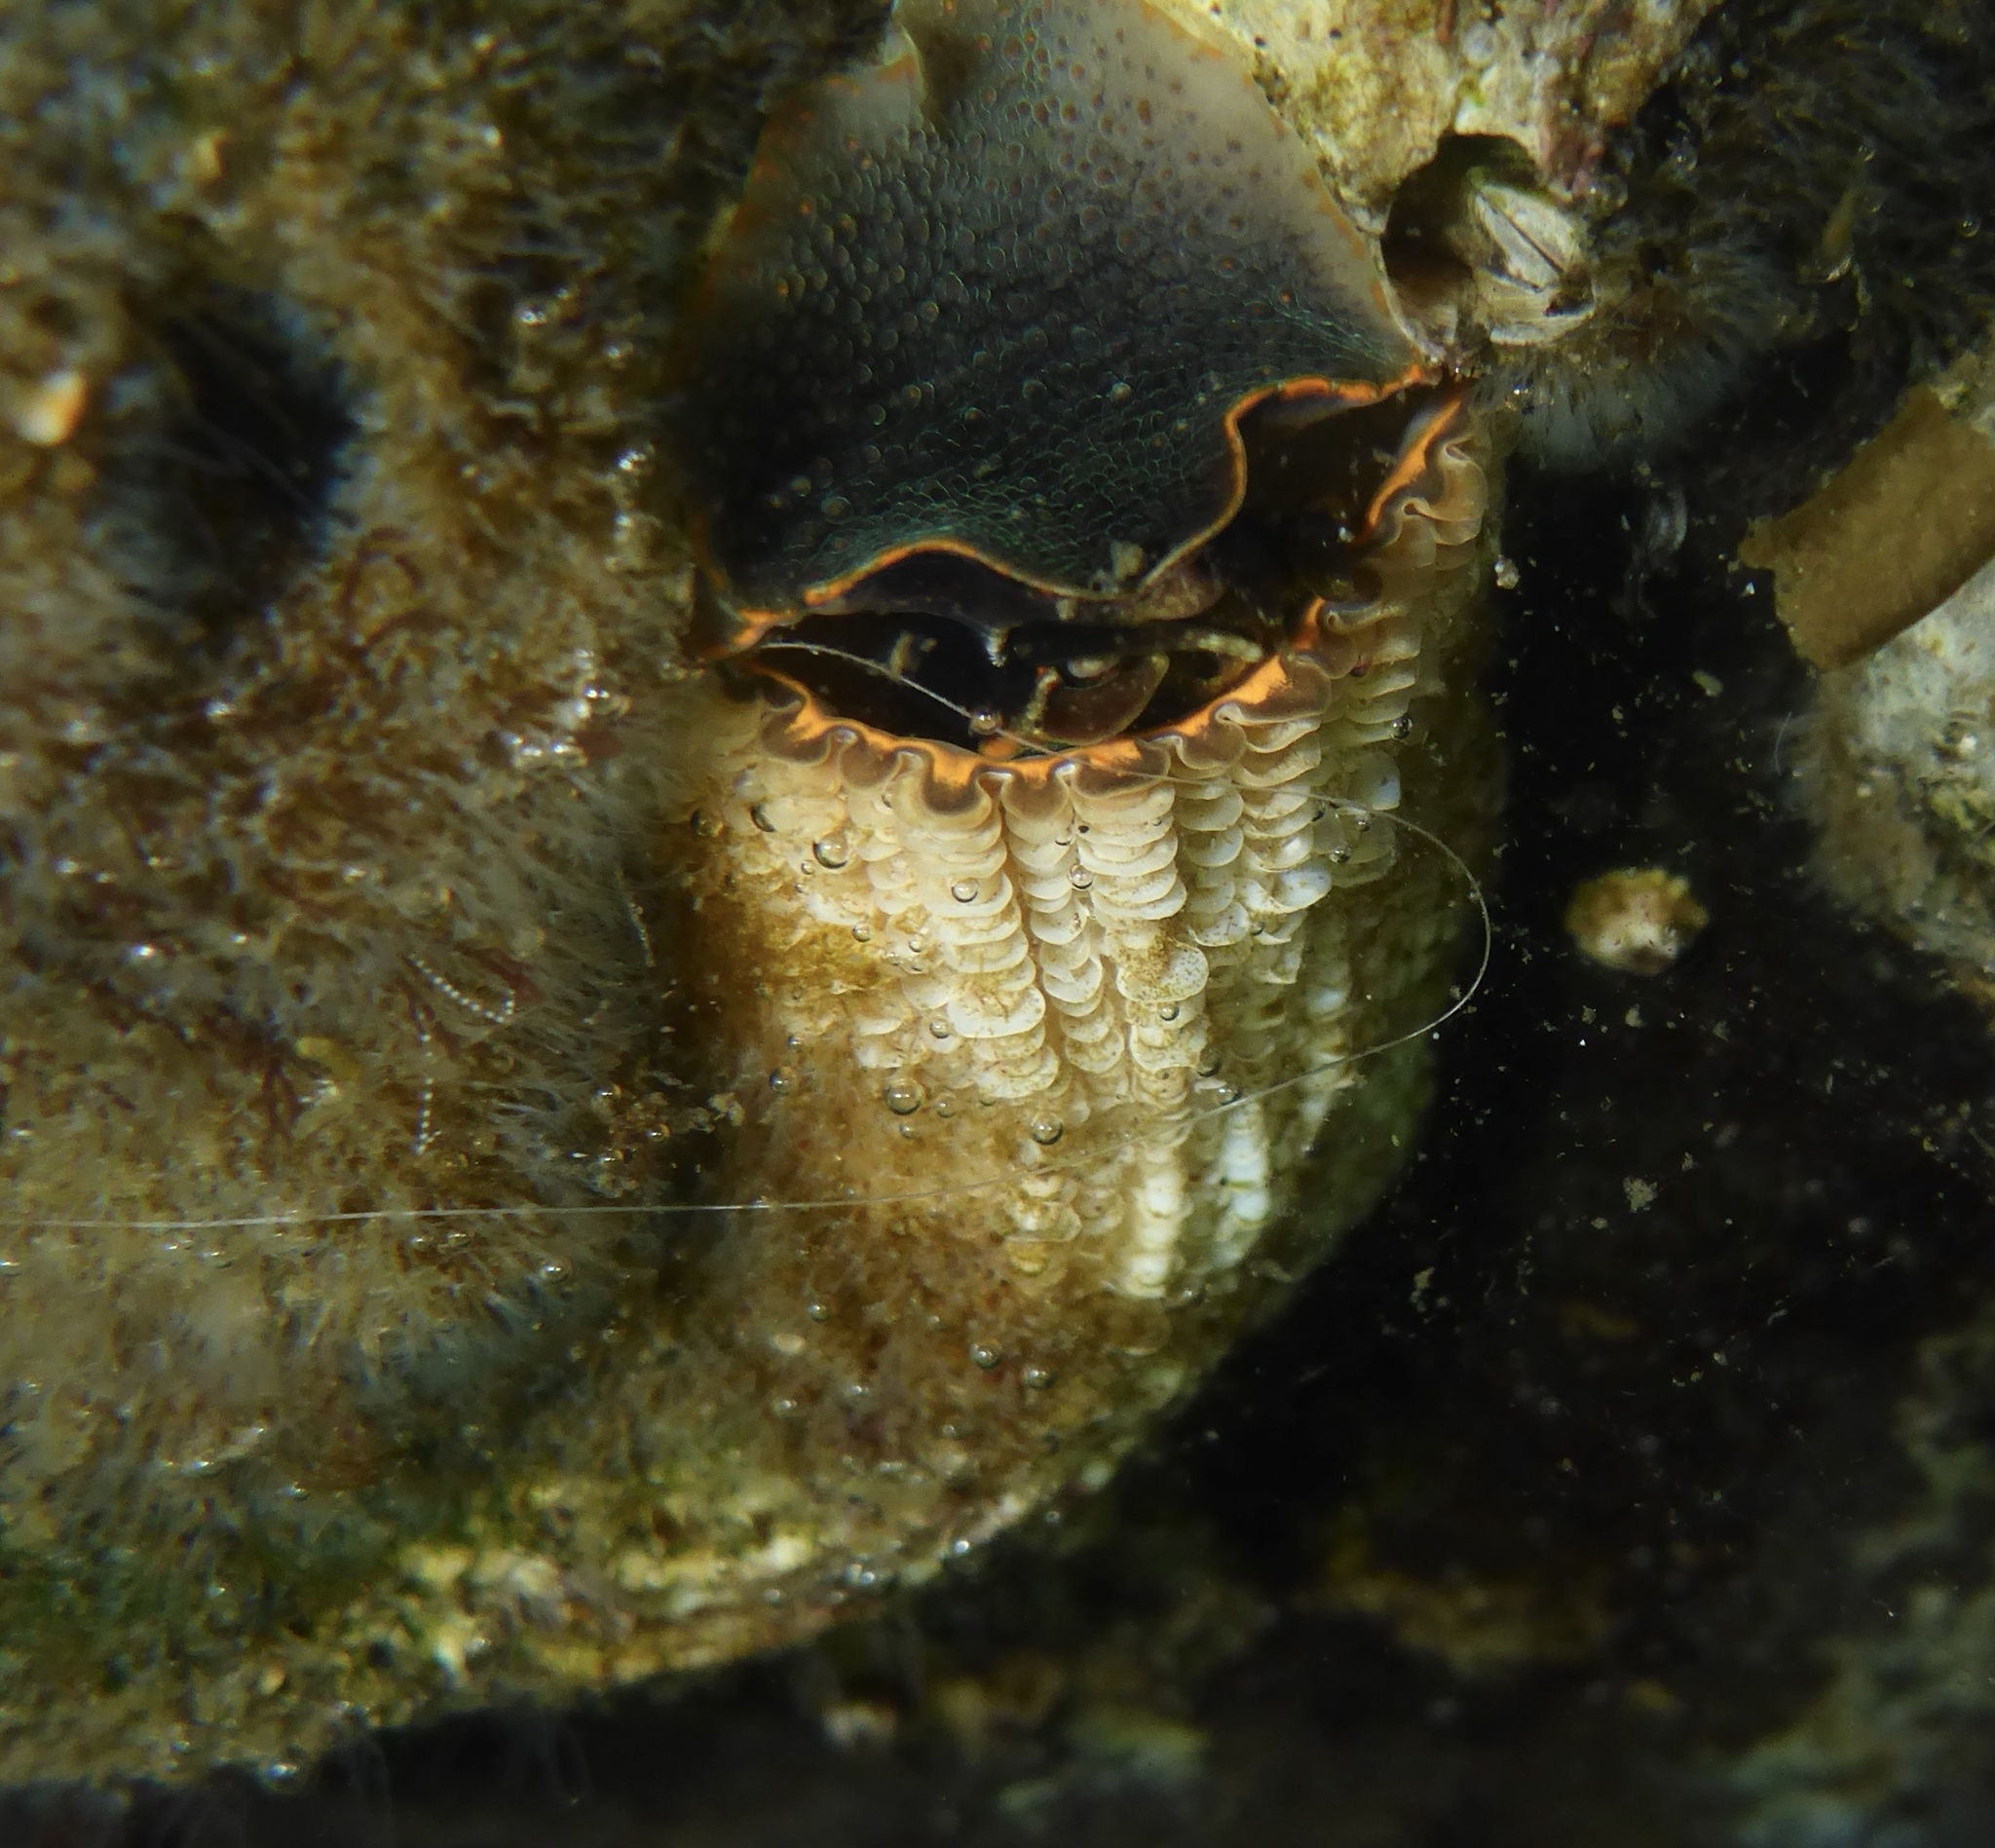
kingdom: Animalia
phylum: Mollusca
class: Gastropoda
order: Littorinimorpha
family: Vermetidae
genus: Thylacodes
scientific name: Thylacodes squamigerus
